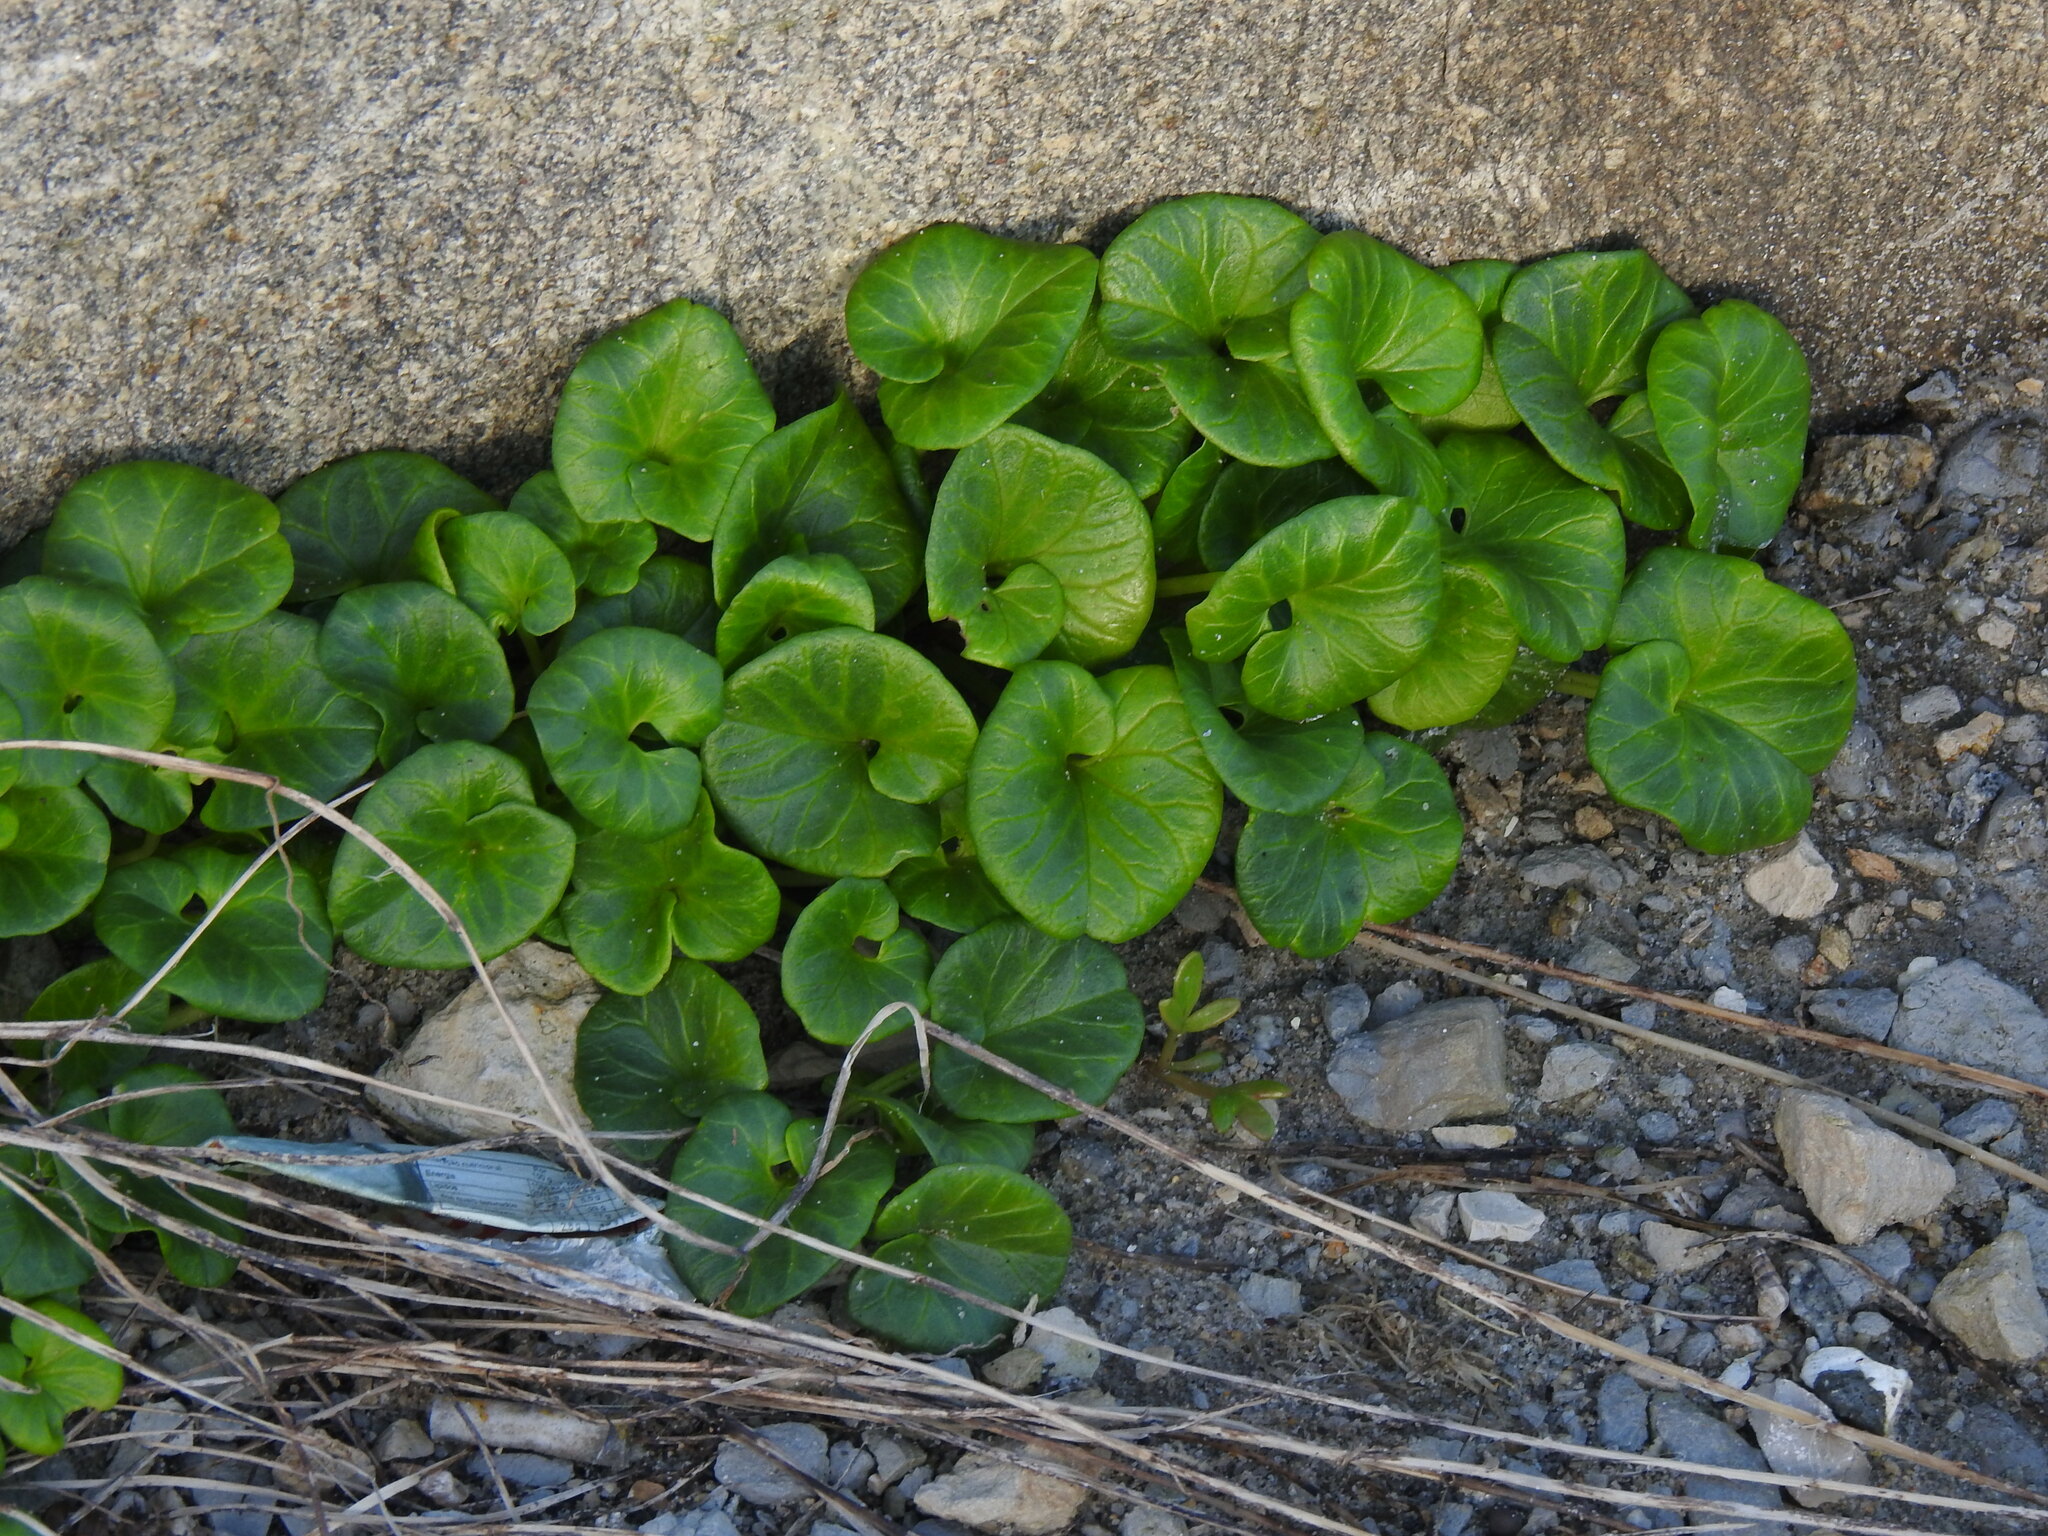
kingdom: Plantae
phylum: Tracheophyta
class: Magnoliopsida
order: Solanales
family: Convolvulaceae
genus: Calystegia
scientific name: Calystegia soldanella
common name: Sea bindweed
